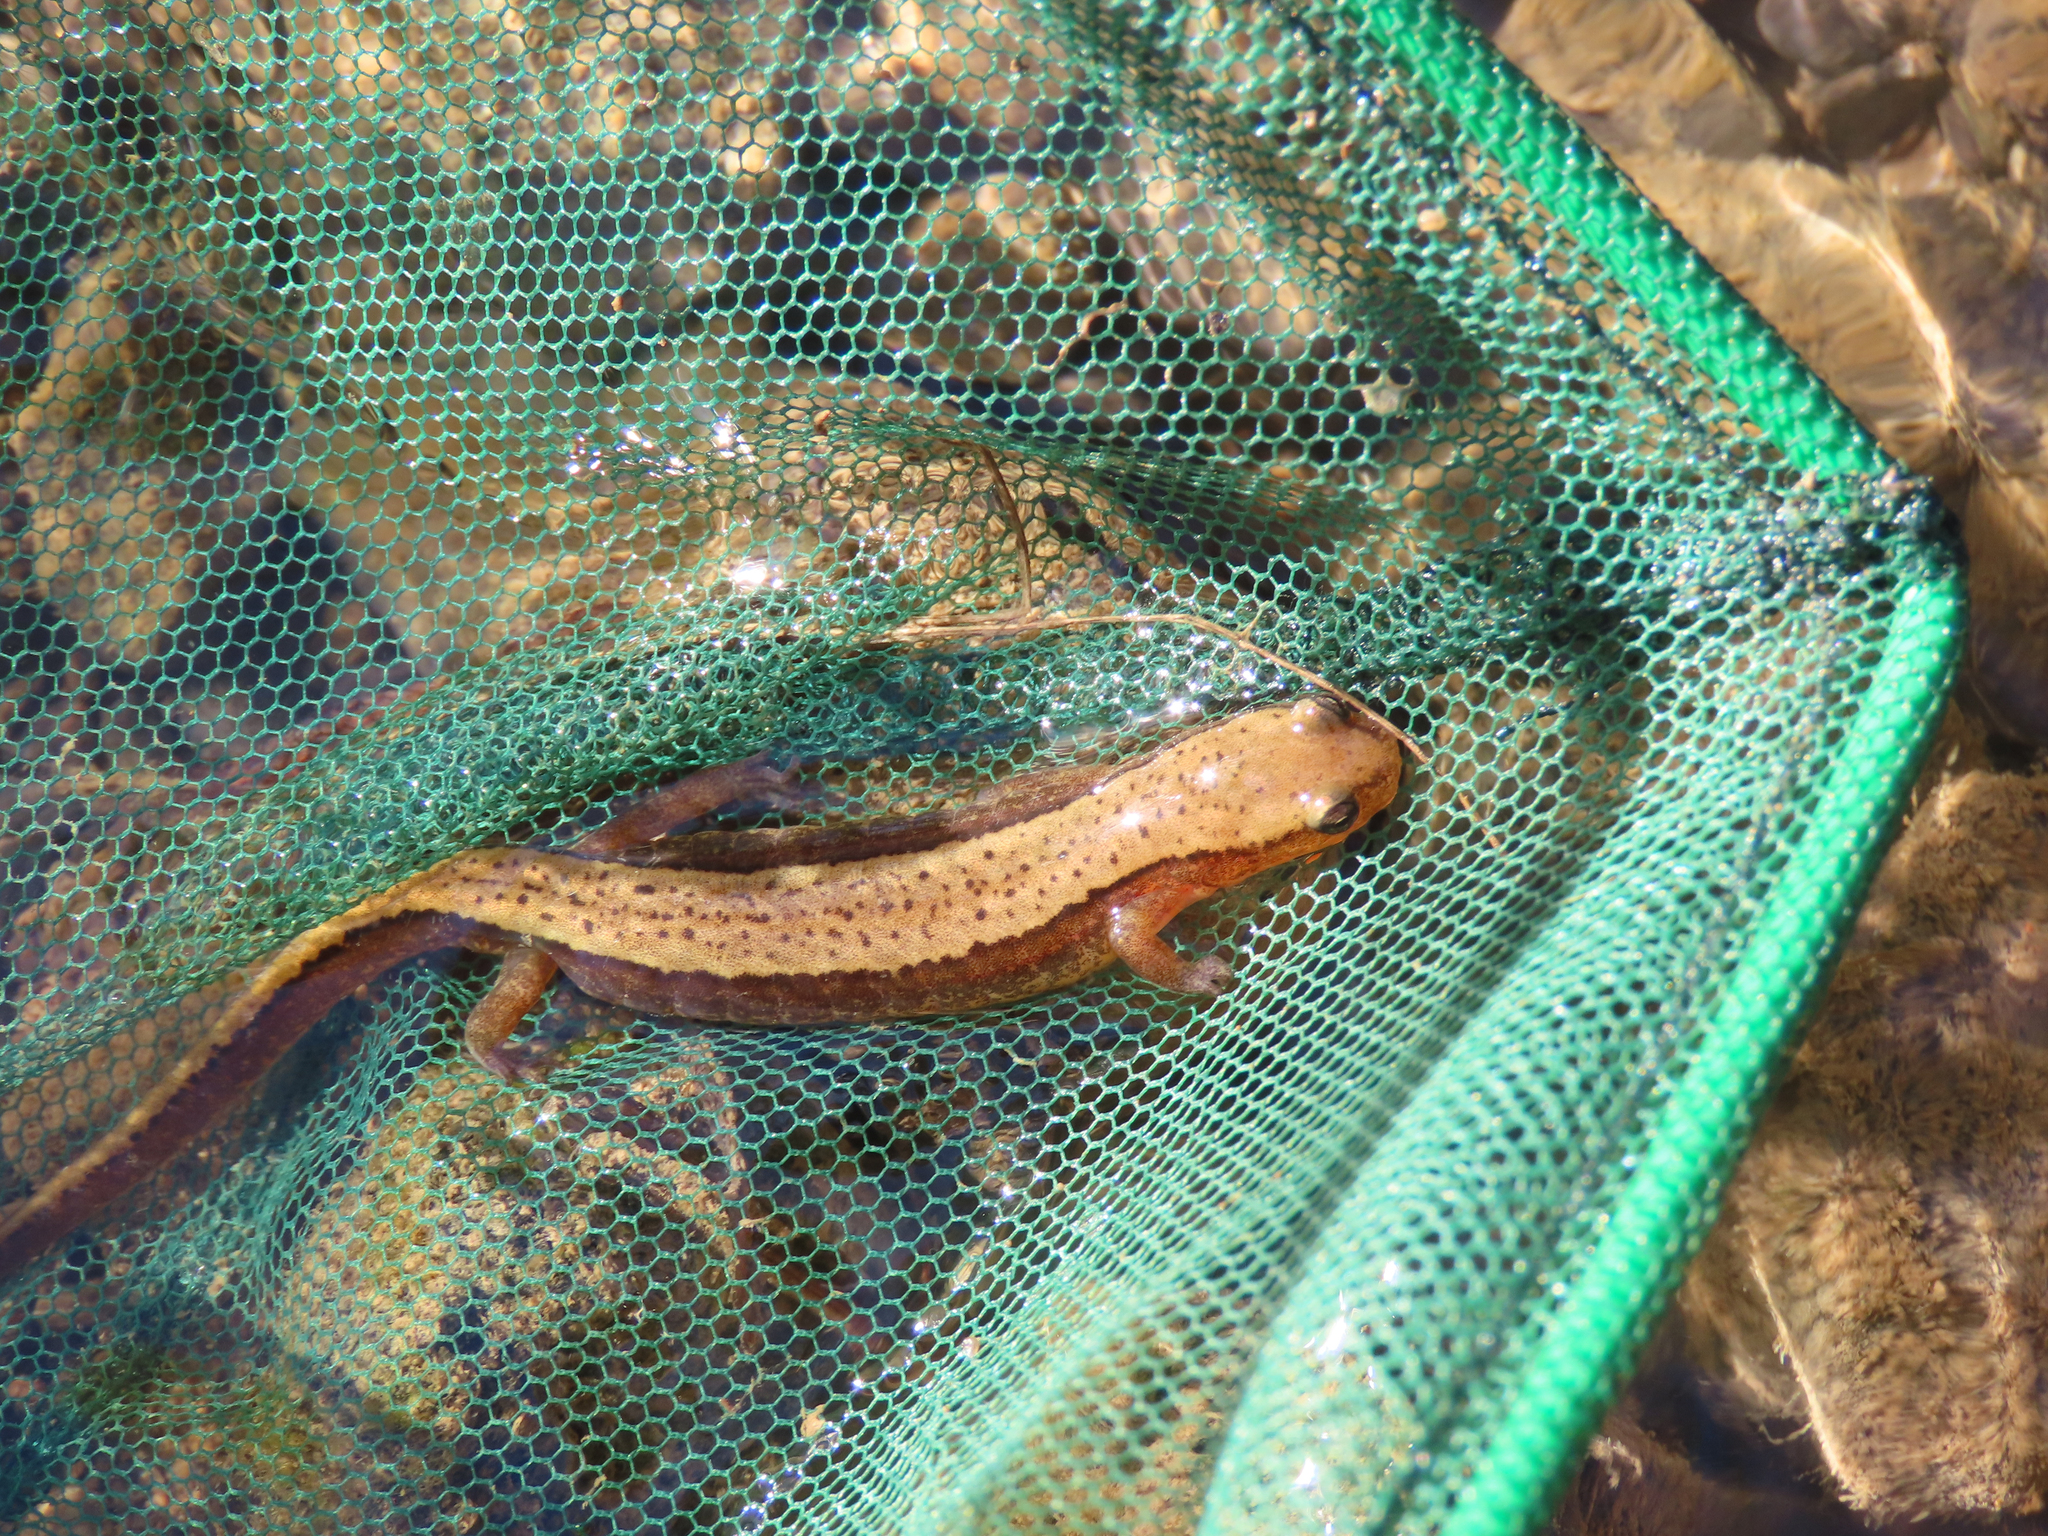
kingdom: Animalia
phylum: Chordata
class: Amphibia
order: Caudata
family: Plethodontidae
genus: Eurycea
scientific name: Eurycea aquatica
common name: Brown-backed salamander
